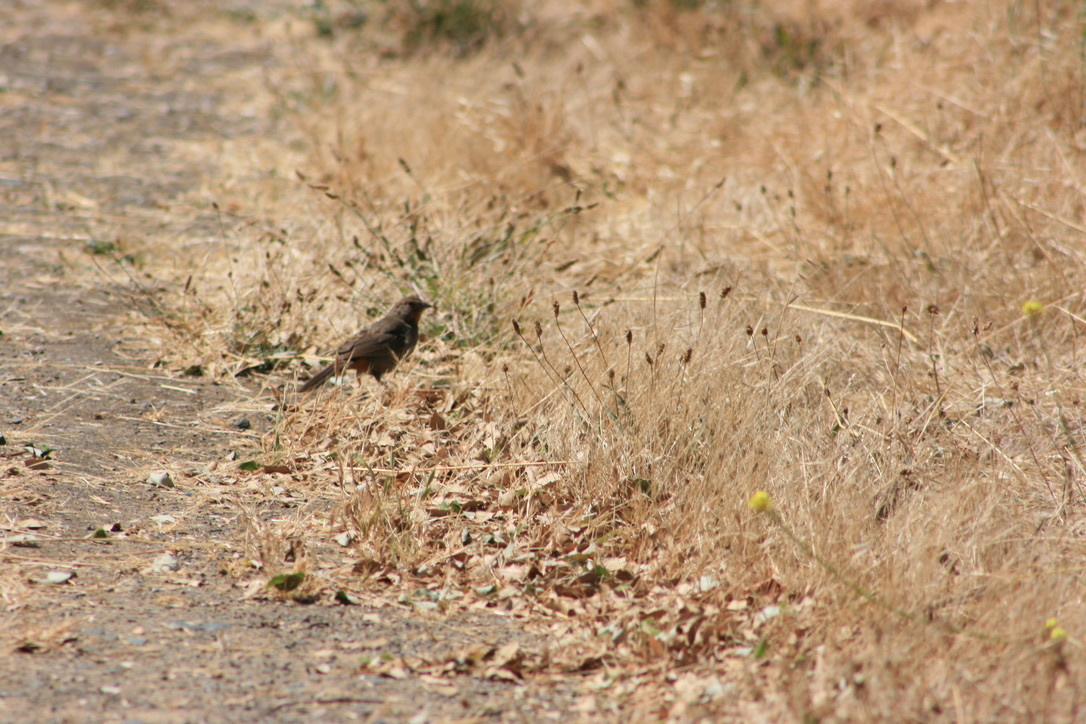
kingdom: Animalia
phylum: Chordata
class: Aves
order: Passeriformes
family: Passerellidae
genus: Melozone
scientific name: Melozone crissalis
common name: California towhee
